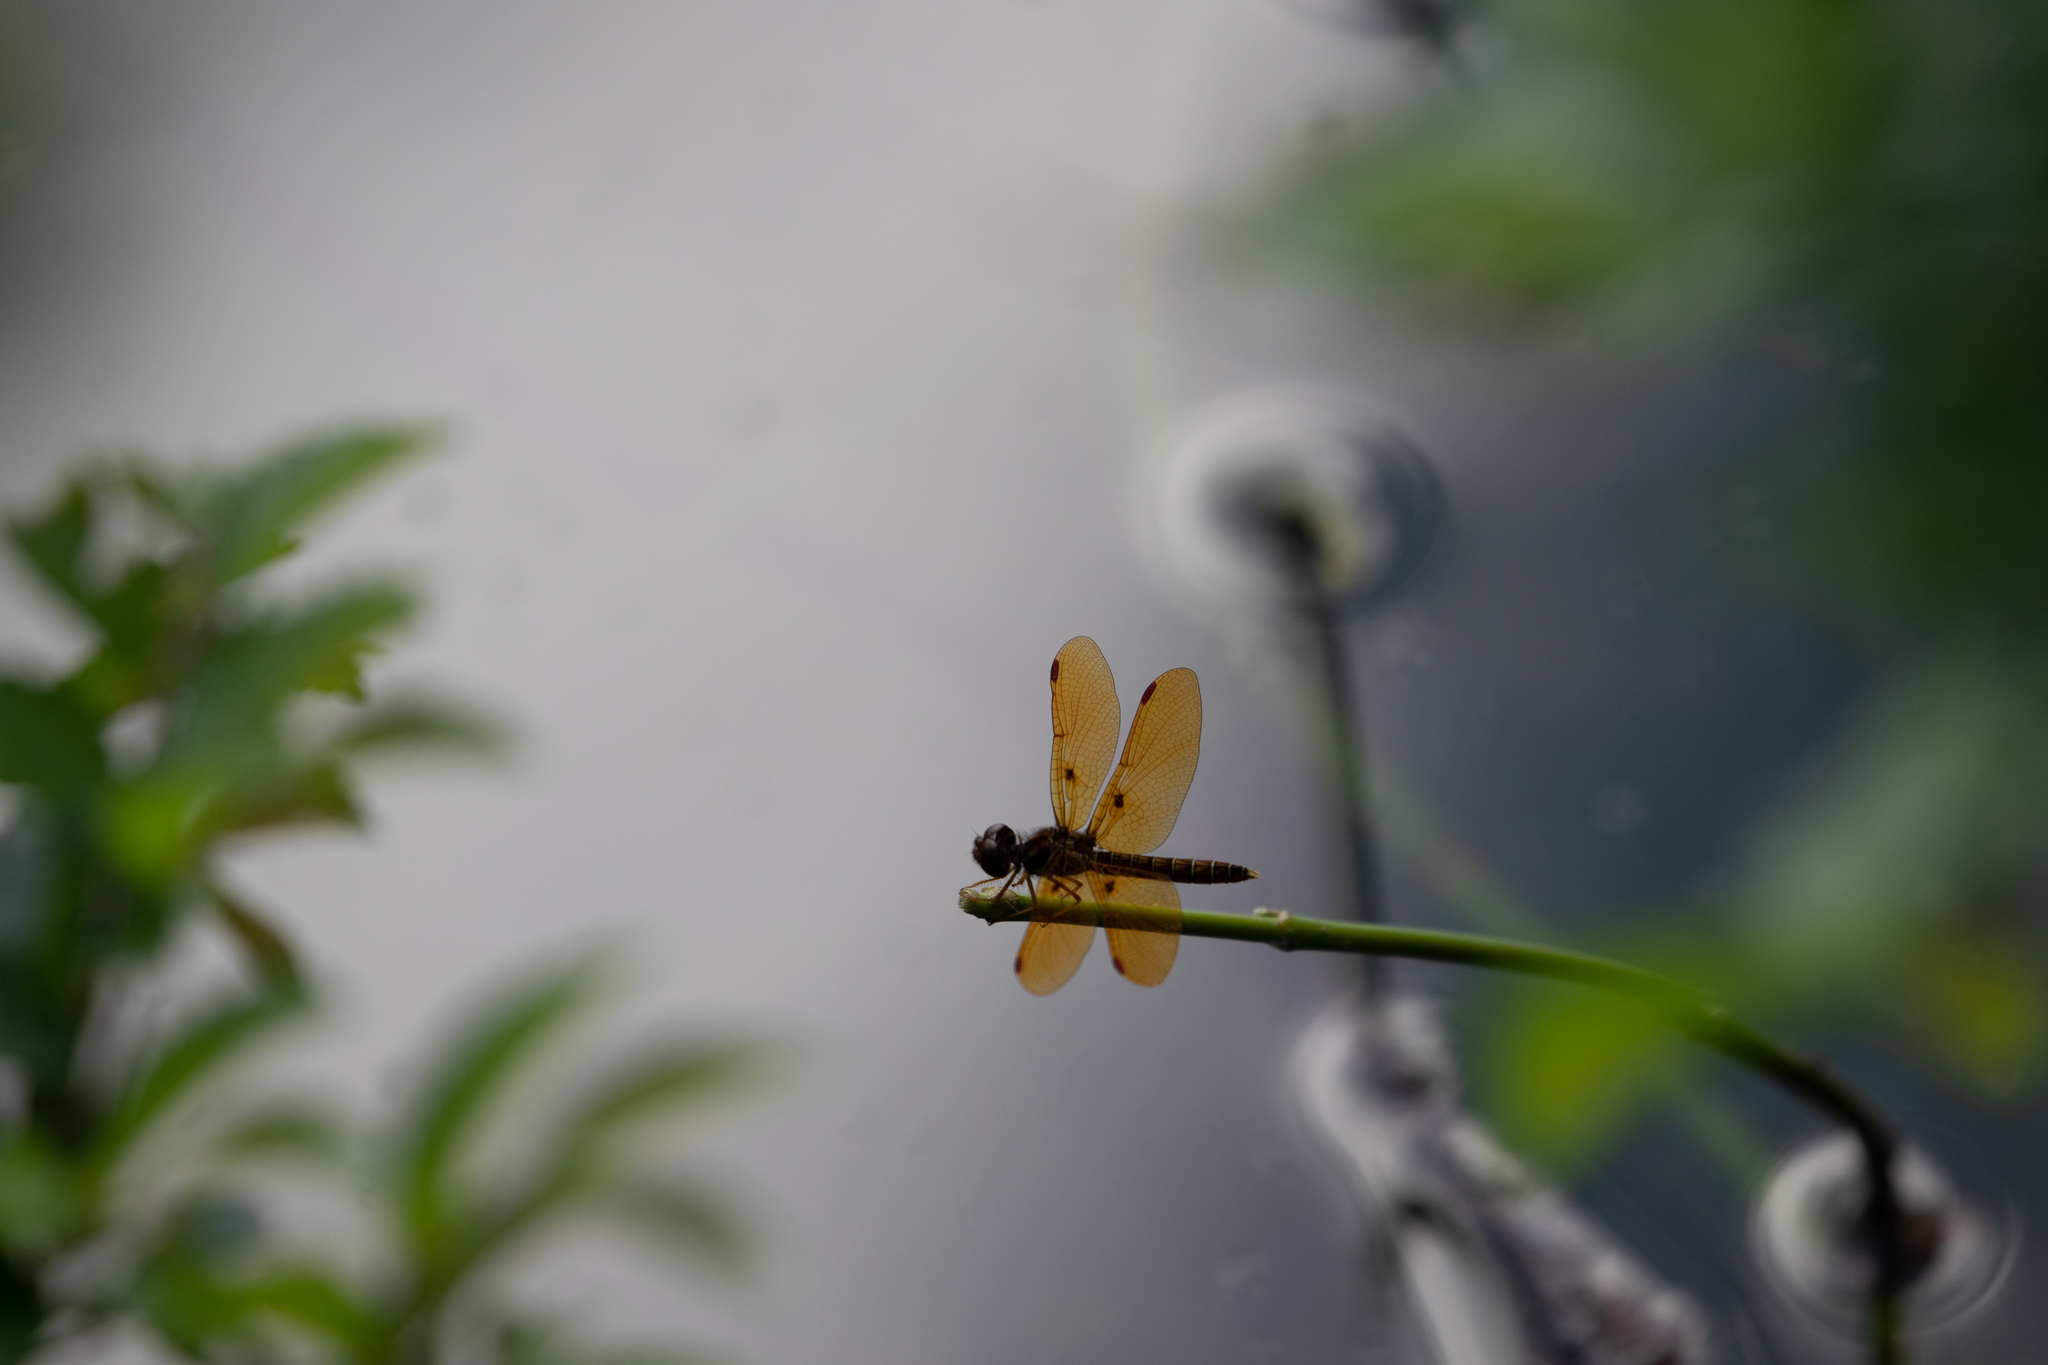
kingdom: Animalia
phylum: Arthropoda
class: Insecta
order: Odonata
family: Libellulidae
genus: Perithemis
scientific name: Perithemis tenera
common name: Eastern amberwing
